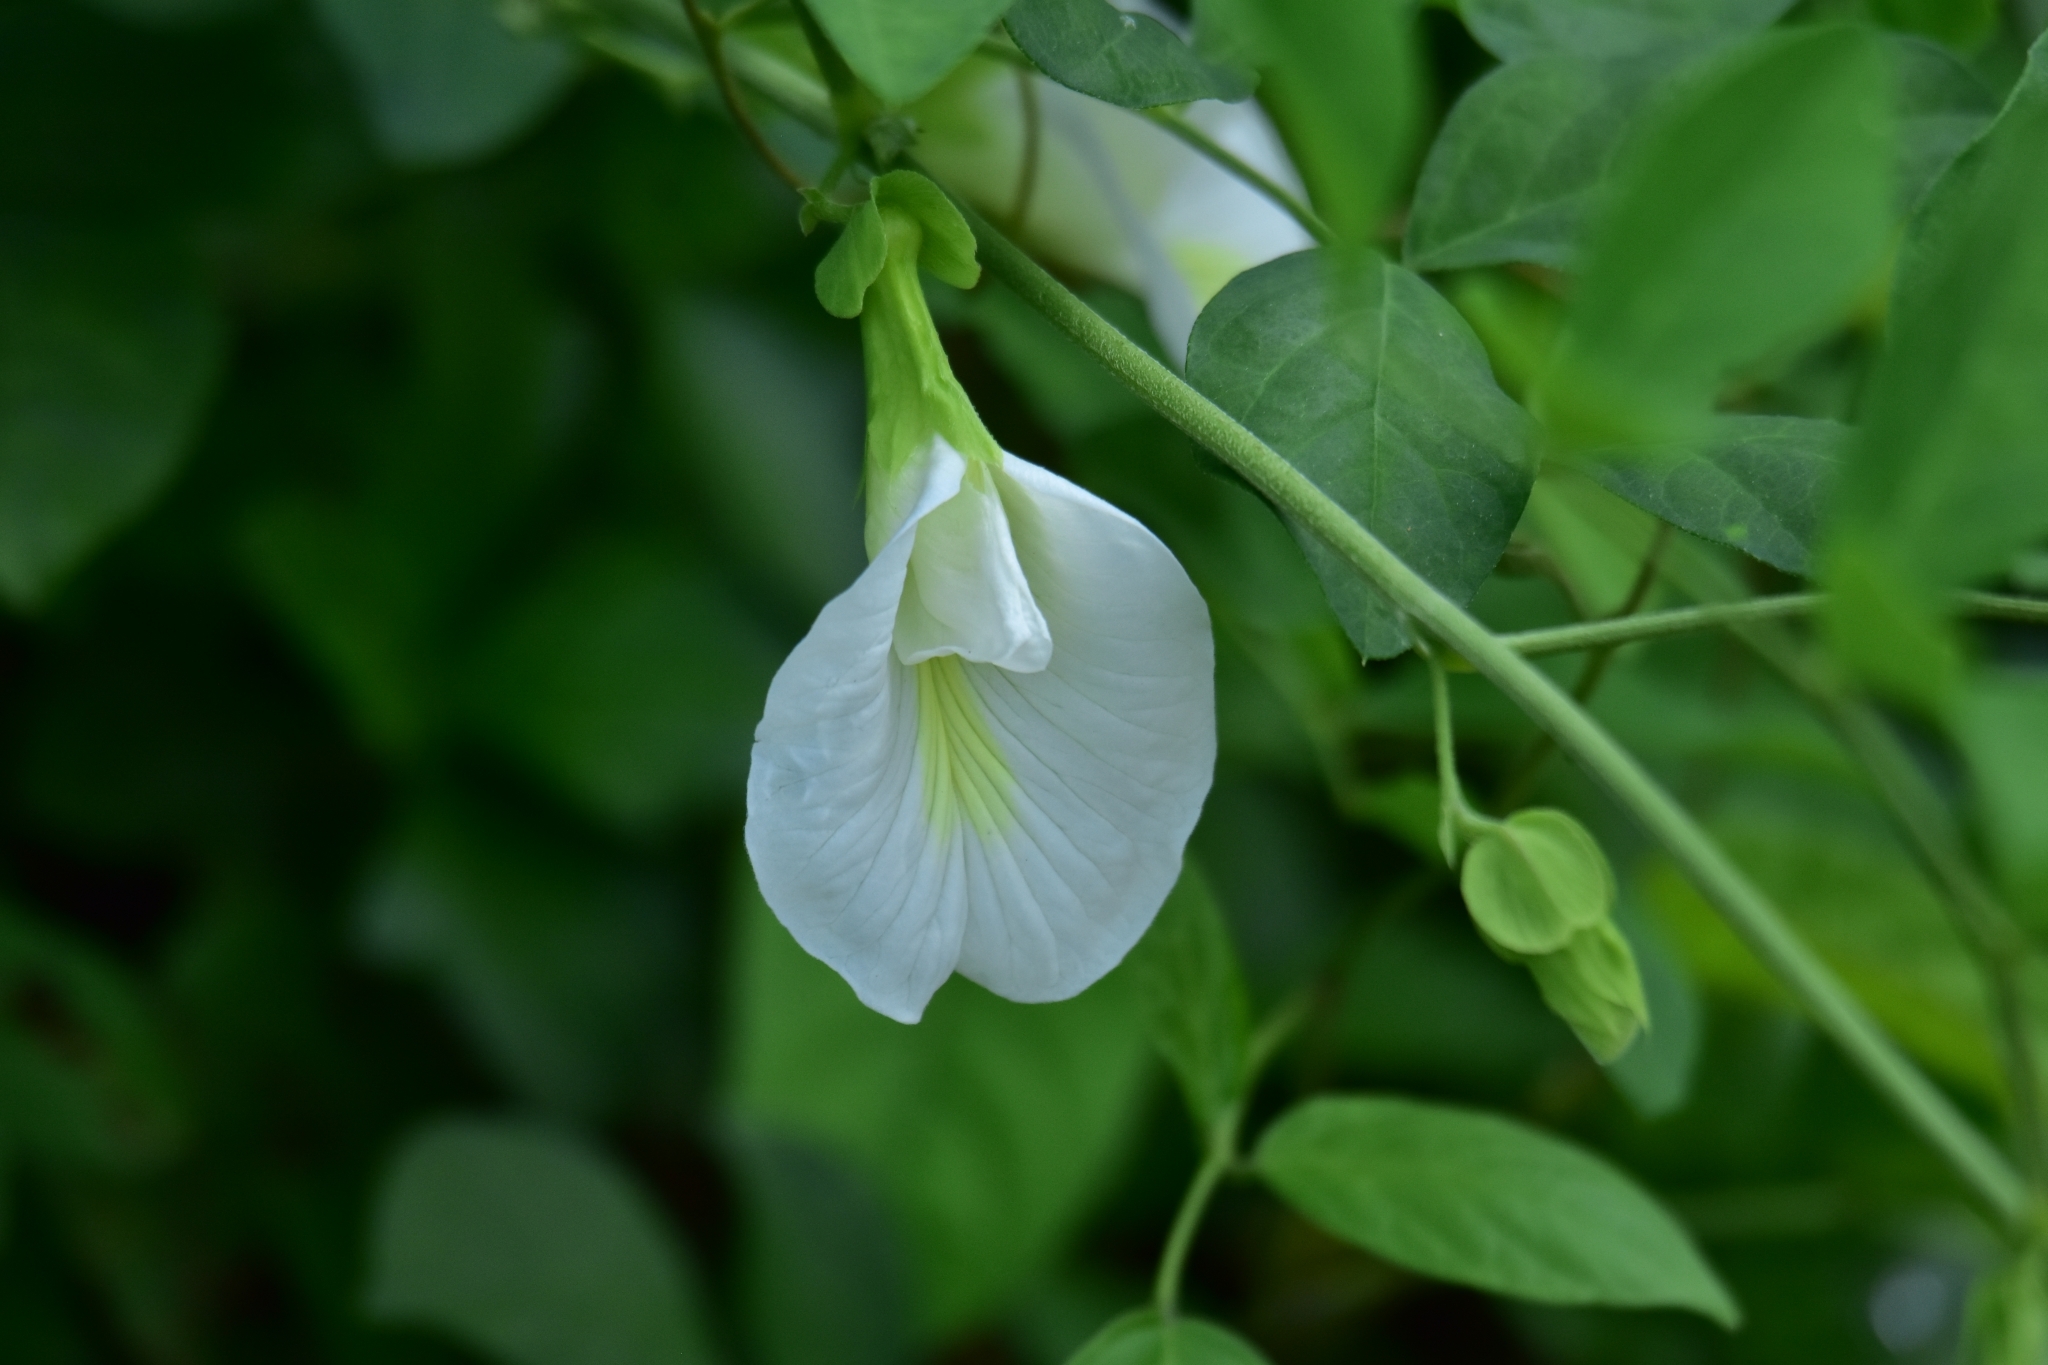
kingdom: Plantae
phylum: Tracheophyta
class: Magnoliopsida
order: Fabales
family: Fabaceae
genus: Clitoria
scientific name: Clitoria ternatea
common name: Asian pigeonwings
